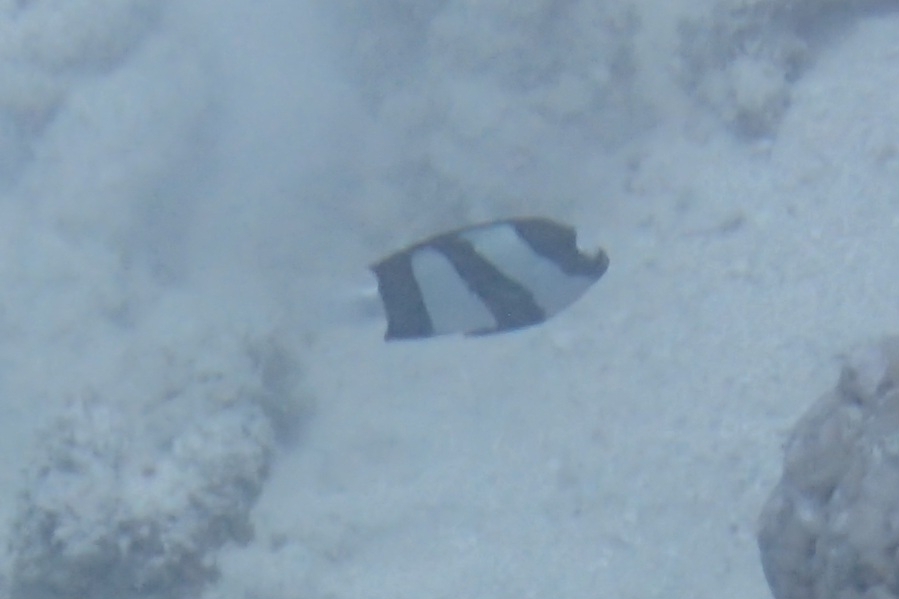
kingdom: Animalia
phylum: Chordata
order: Perciformes
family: Pomacentridae
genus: Dascyllus
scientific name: Dascyllus aruanus
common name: Humbug dascyllus
